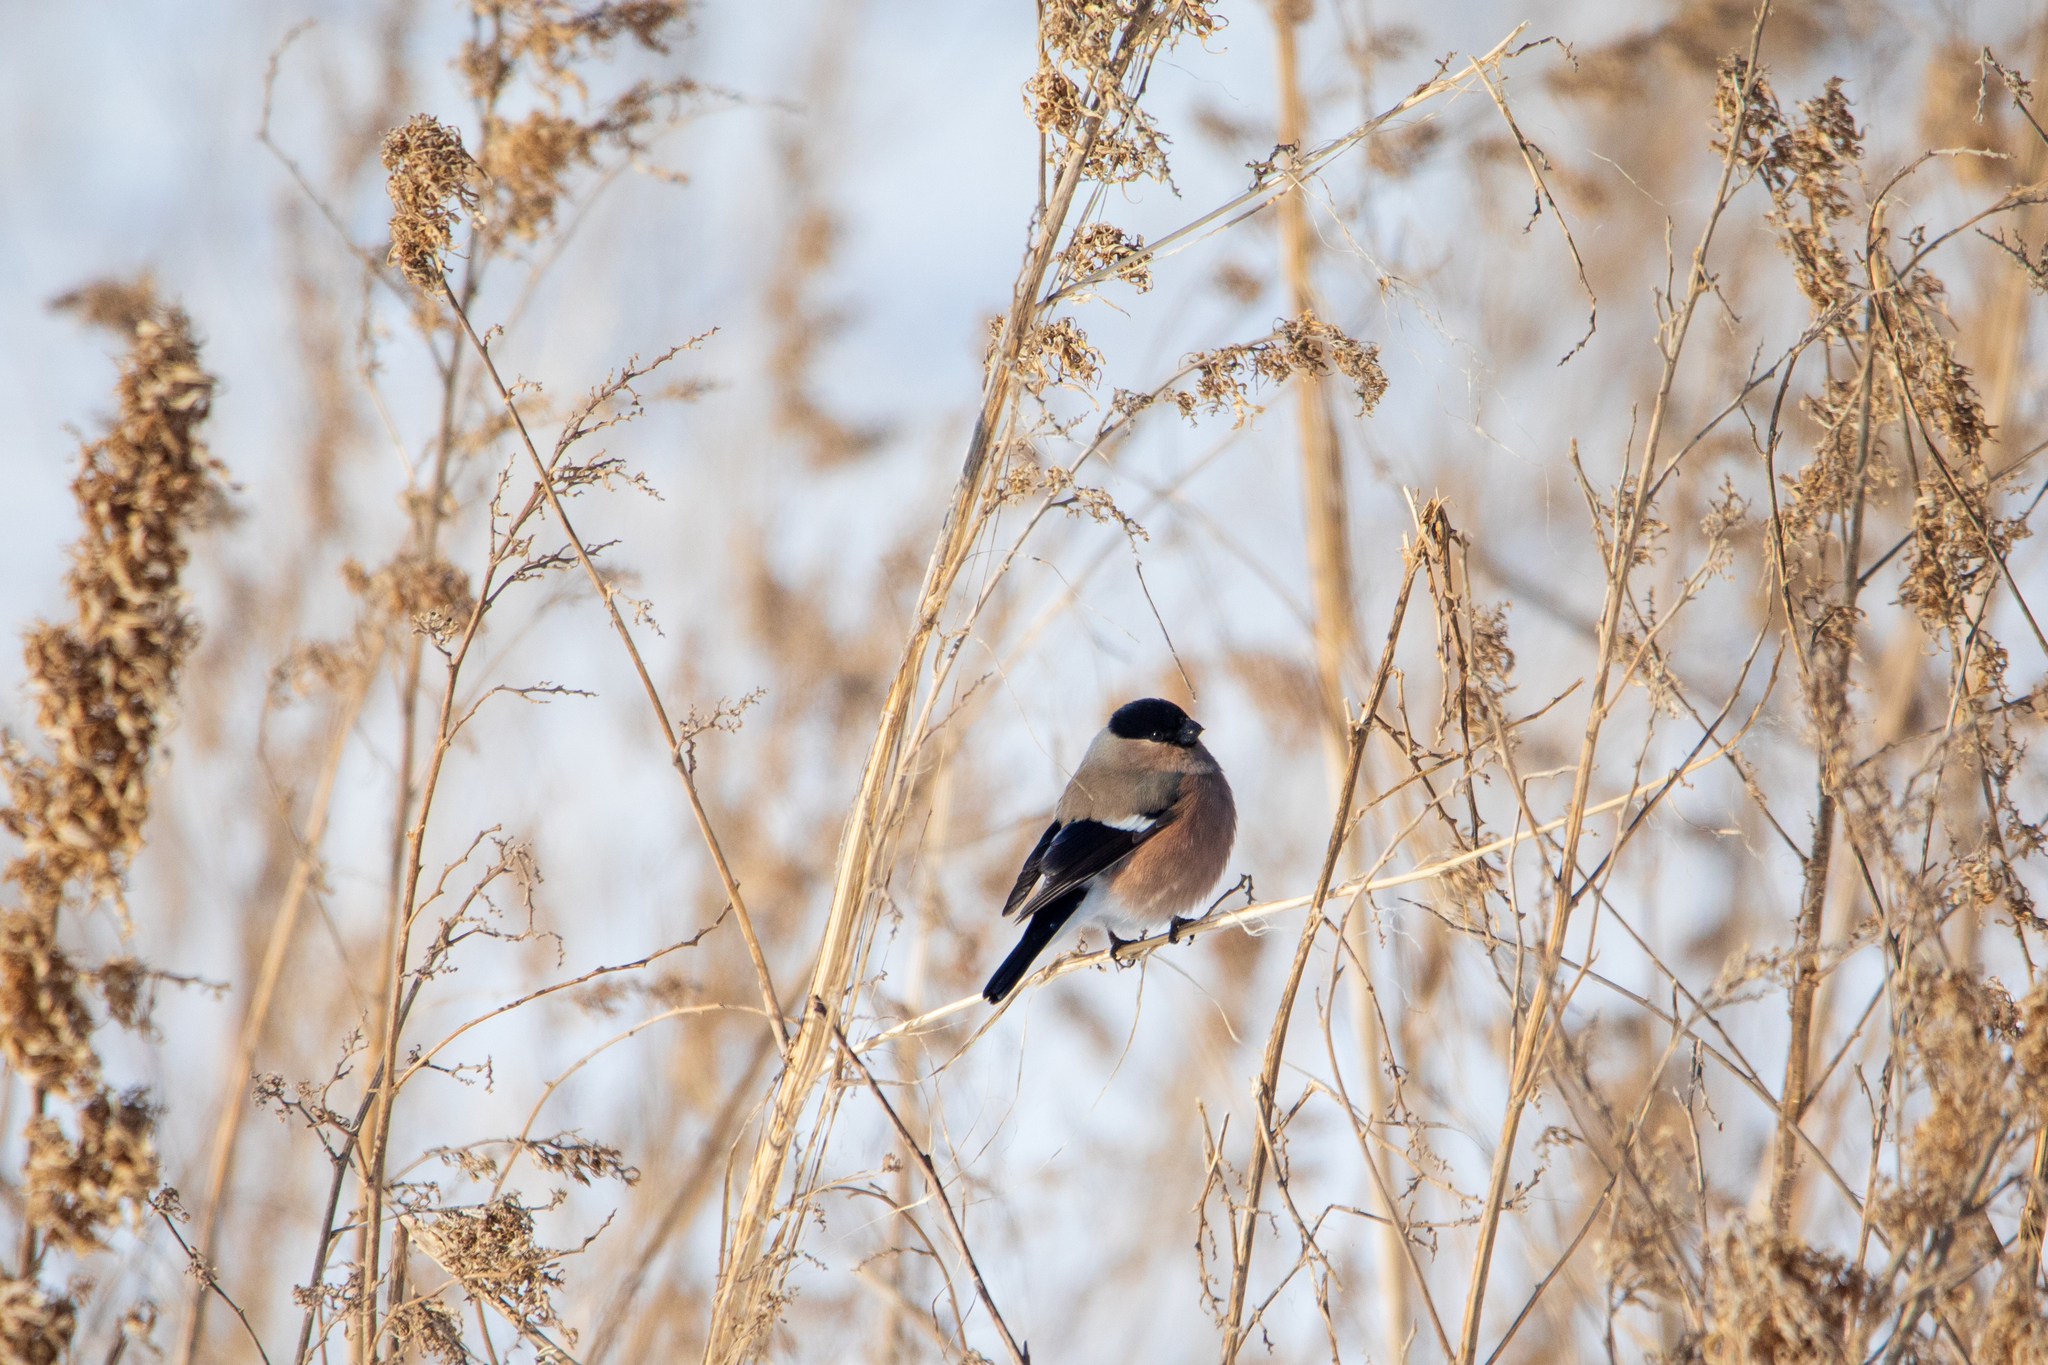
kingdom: Animalia
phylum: Chordata
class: Aves
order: Passeriformes
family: Fringillidae
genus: Pyrrhula
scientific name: Pyrrhula pyrrhula
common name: Eurasian bullfinch
